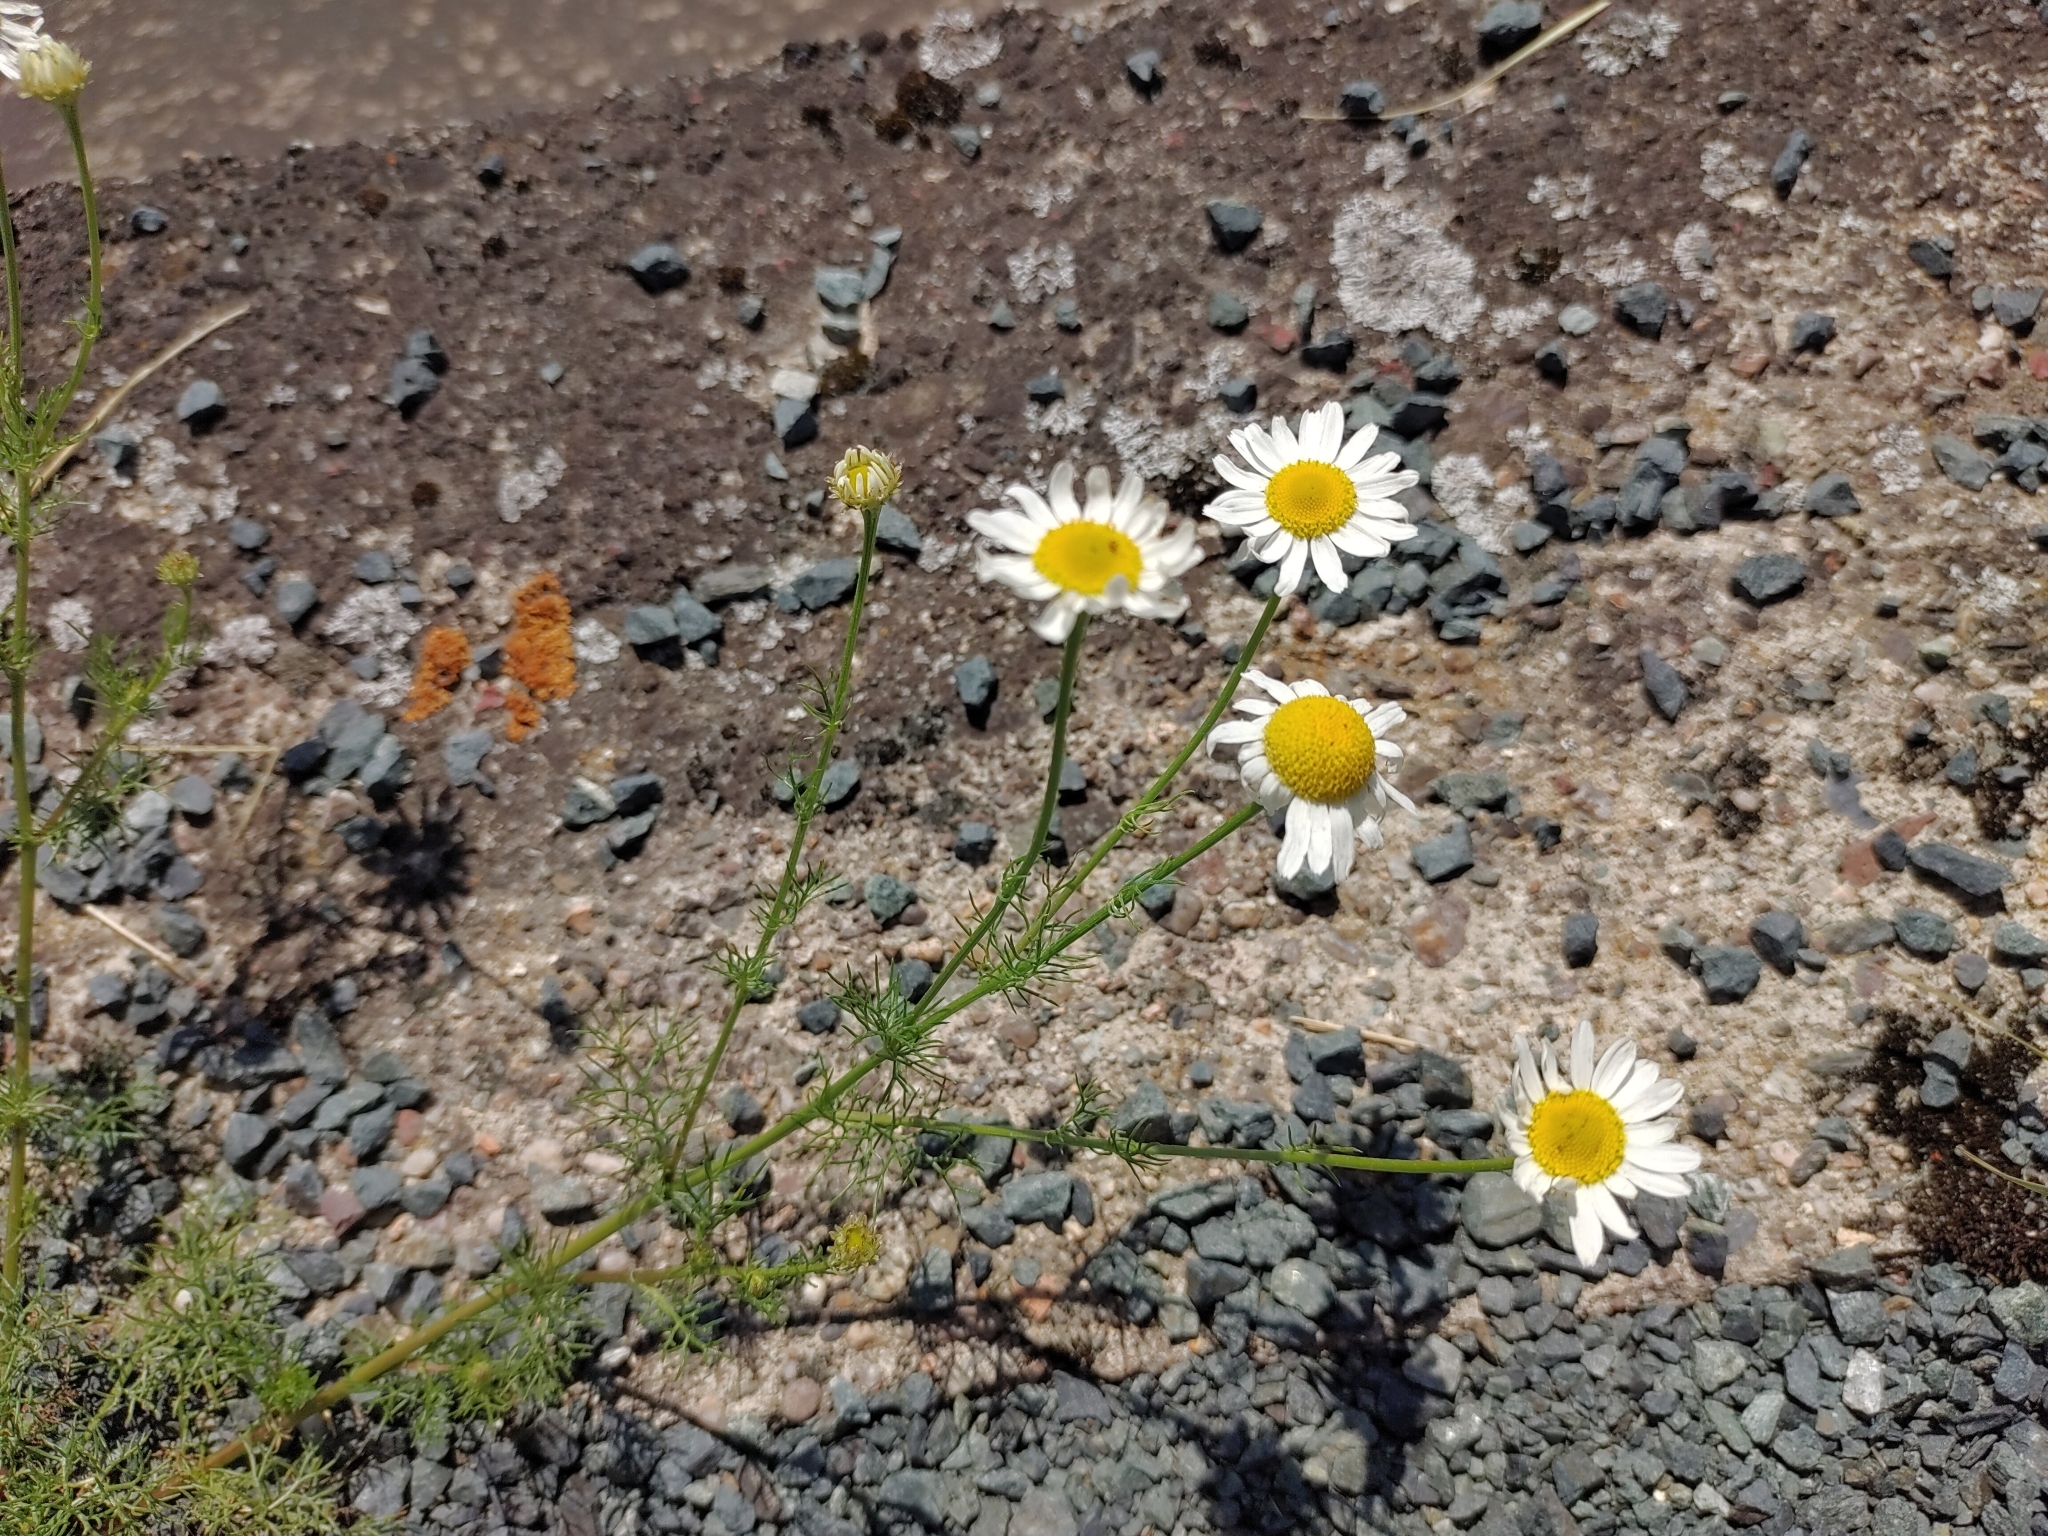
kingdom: Plantae
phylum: Tracheophyta
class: Magnoliopsida
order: Asterales
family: Asteraceae
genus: Tripleurospermum
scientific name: Tripleurospermum inodorum
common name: Scentless mayweed
